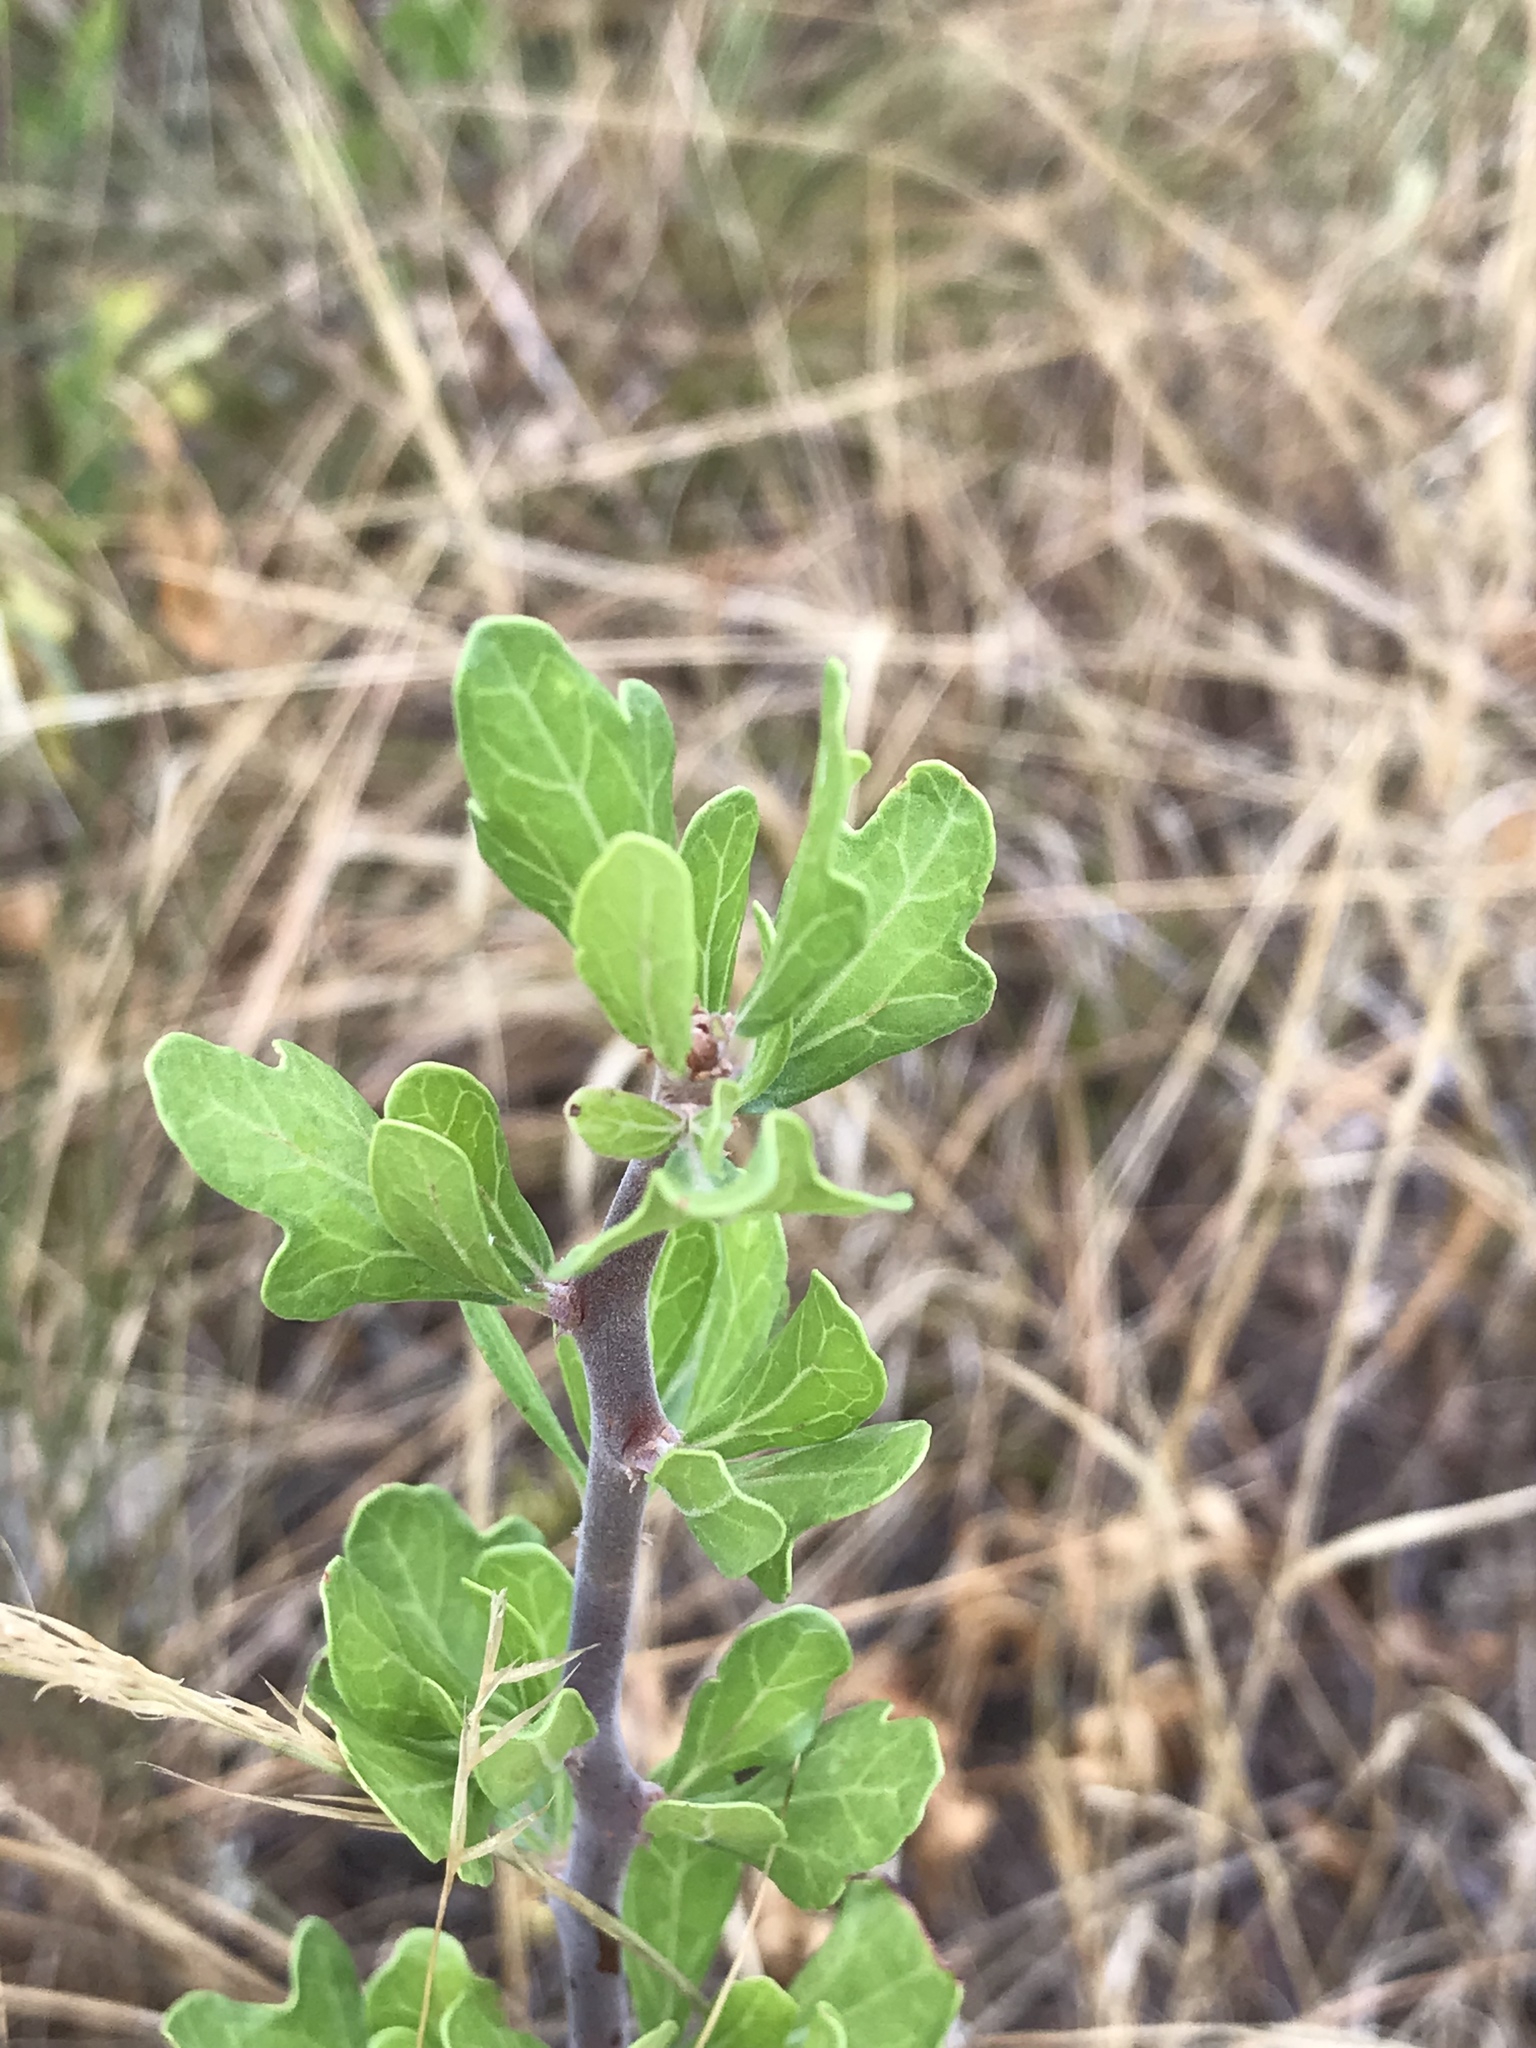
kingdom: Plantae
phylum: Tracheophyta
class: Magnoliopsida
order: Malpighiales
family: Euphorbiaceae
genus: Jatropha
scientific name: Jatropha dioica
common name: Leatherstem
